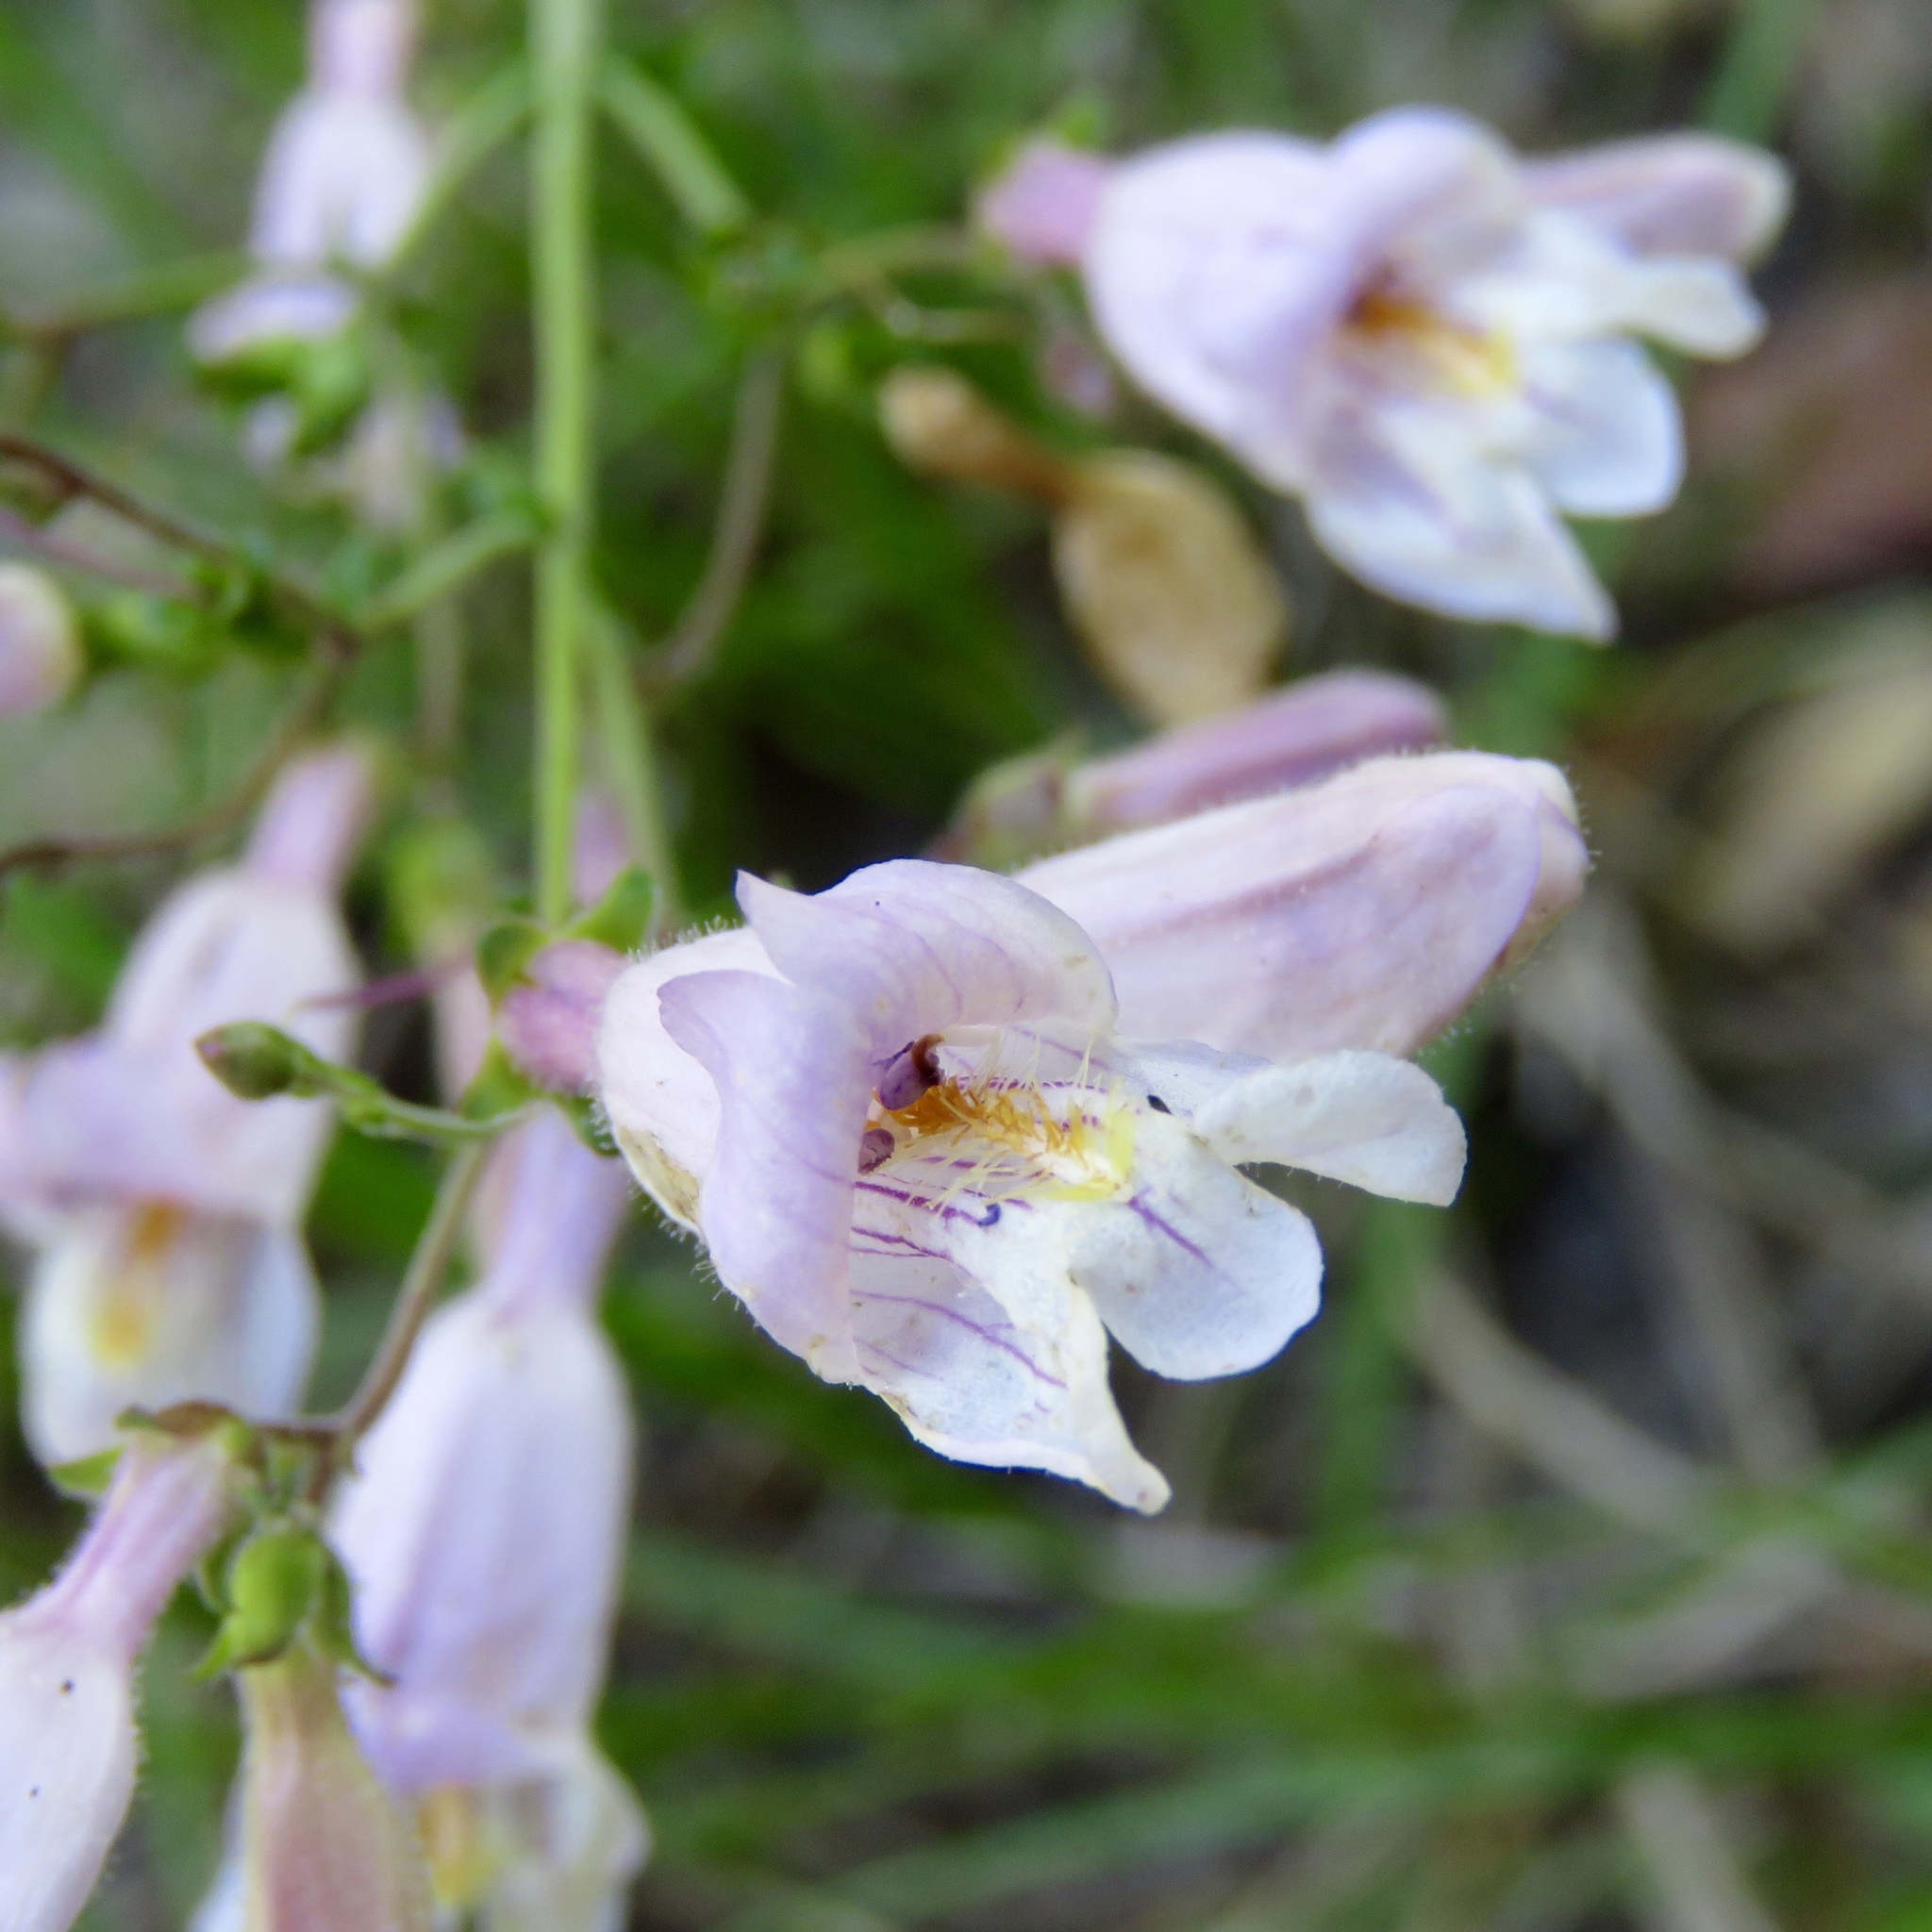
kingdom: Plantae
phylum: Tracheophyta
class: Magnoliopsida
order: Lamiales
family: Plantaginaceae
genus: Penstemon
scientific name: Penstemon laxiflorus
